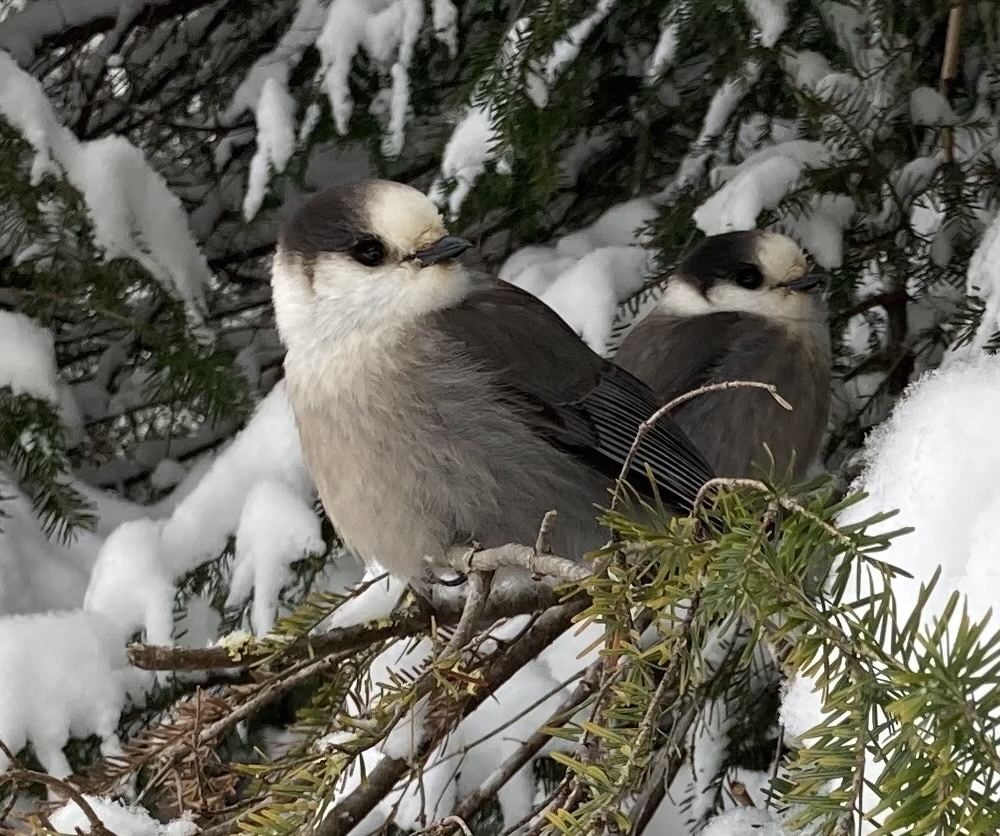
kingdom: Animalia
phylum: Chordata
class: Aves
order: Passeriformes
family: Corvidae
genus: Perisoreus
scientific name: Perisoreus canadensis
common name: Gray jay
